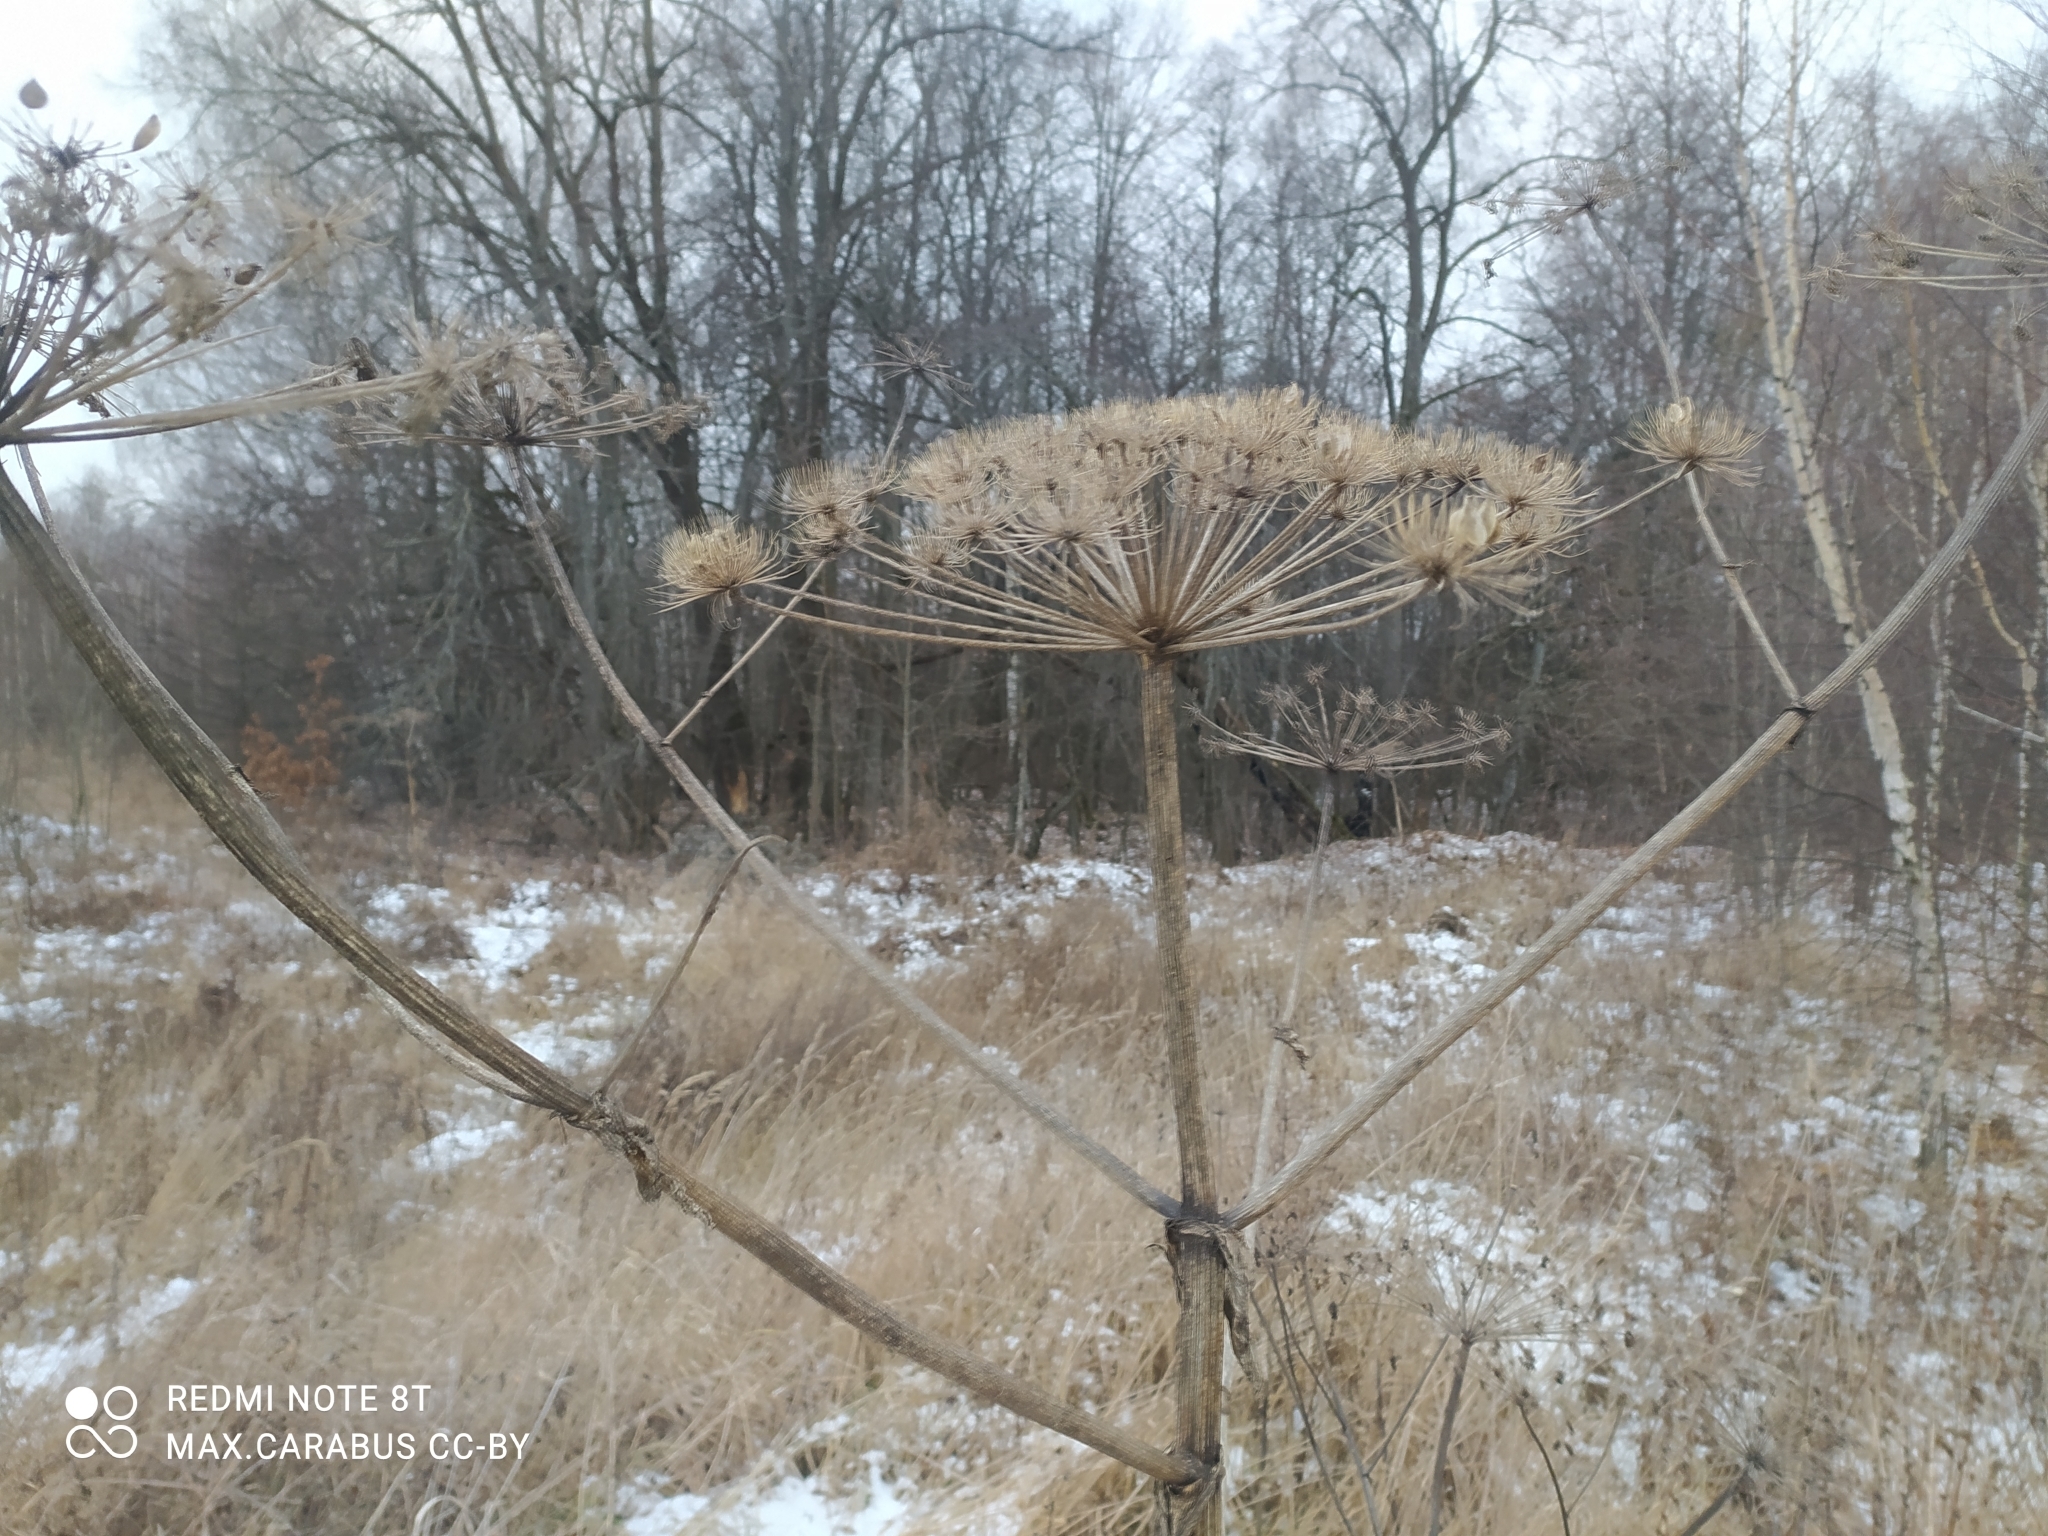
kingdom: Plantae
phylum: Tracheophyta
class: Magnoliopsida
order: Apiales
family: Apiaceae
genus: Heracleum
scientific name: Heracleum sosnowskyi
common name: Sosnowsky's hogweed
